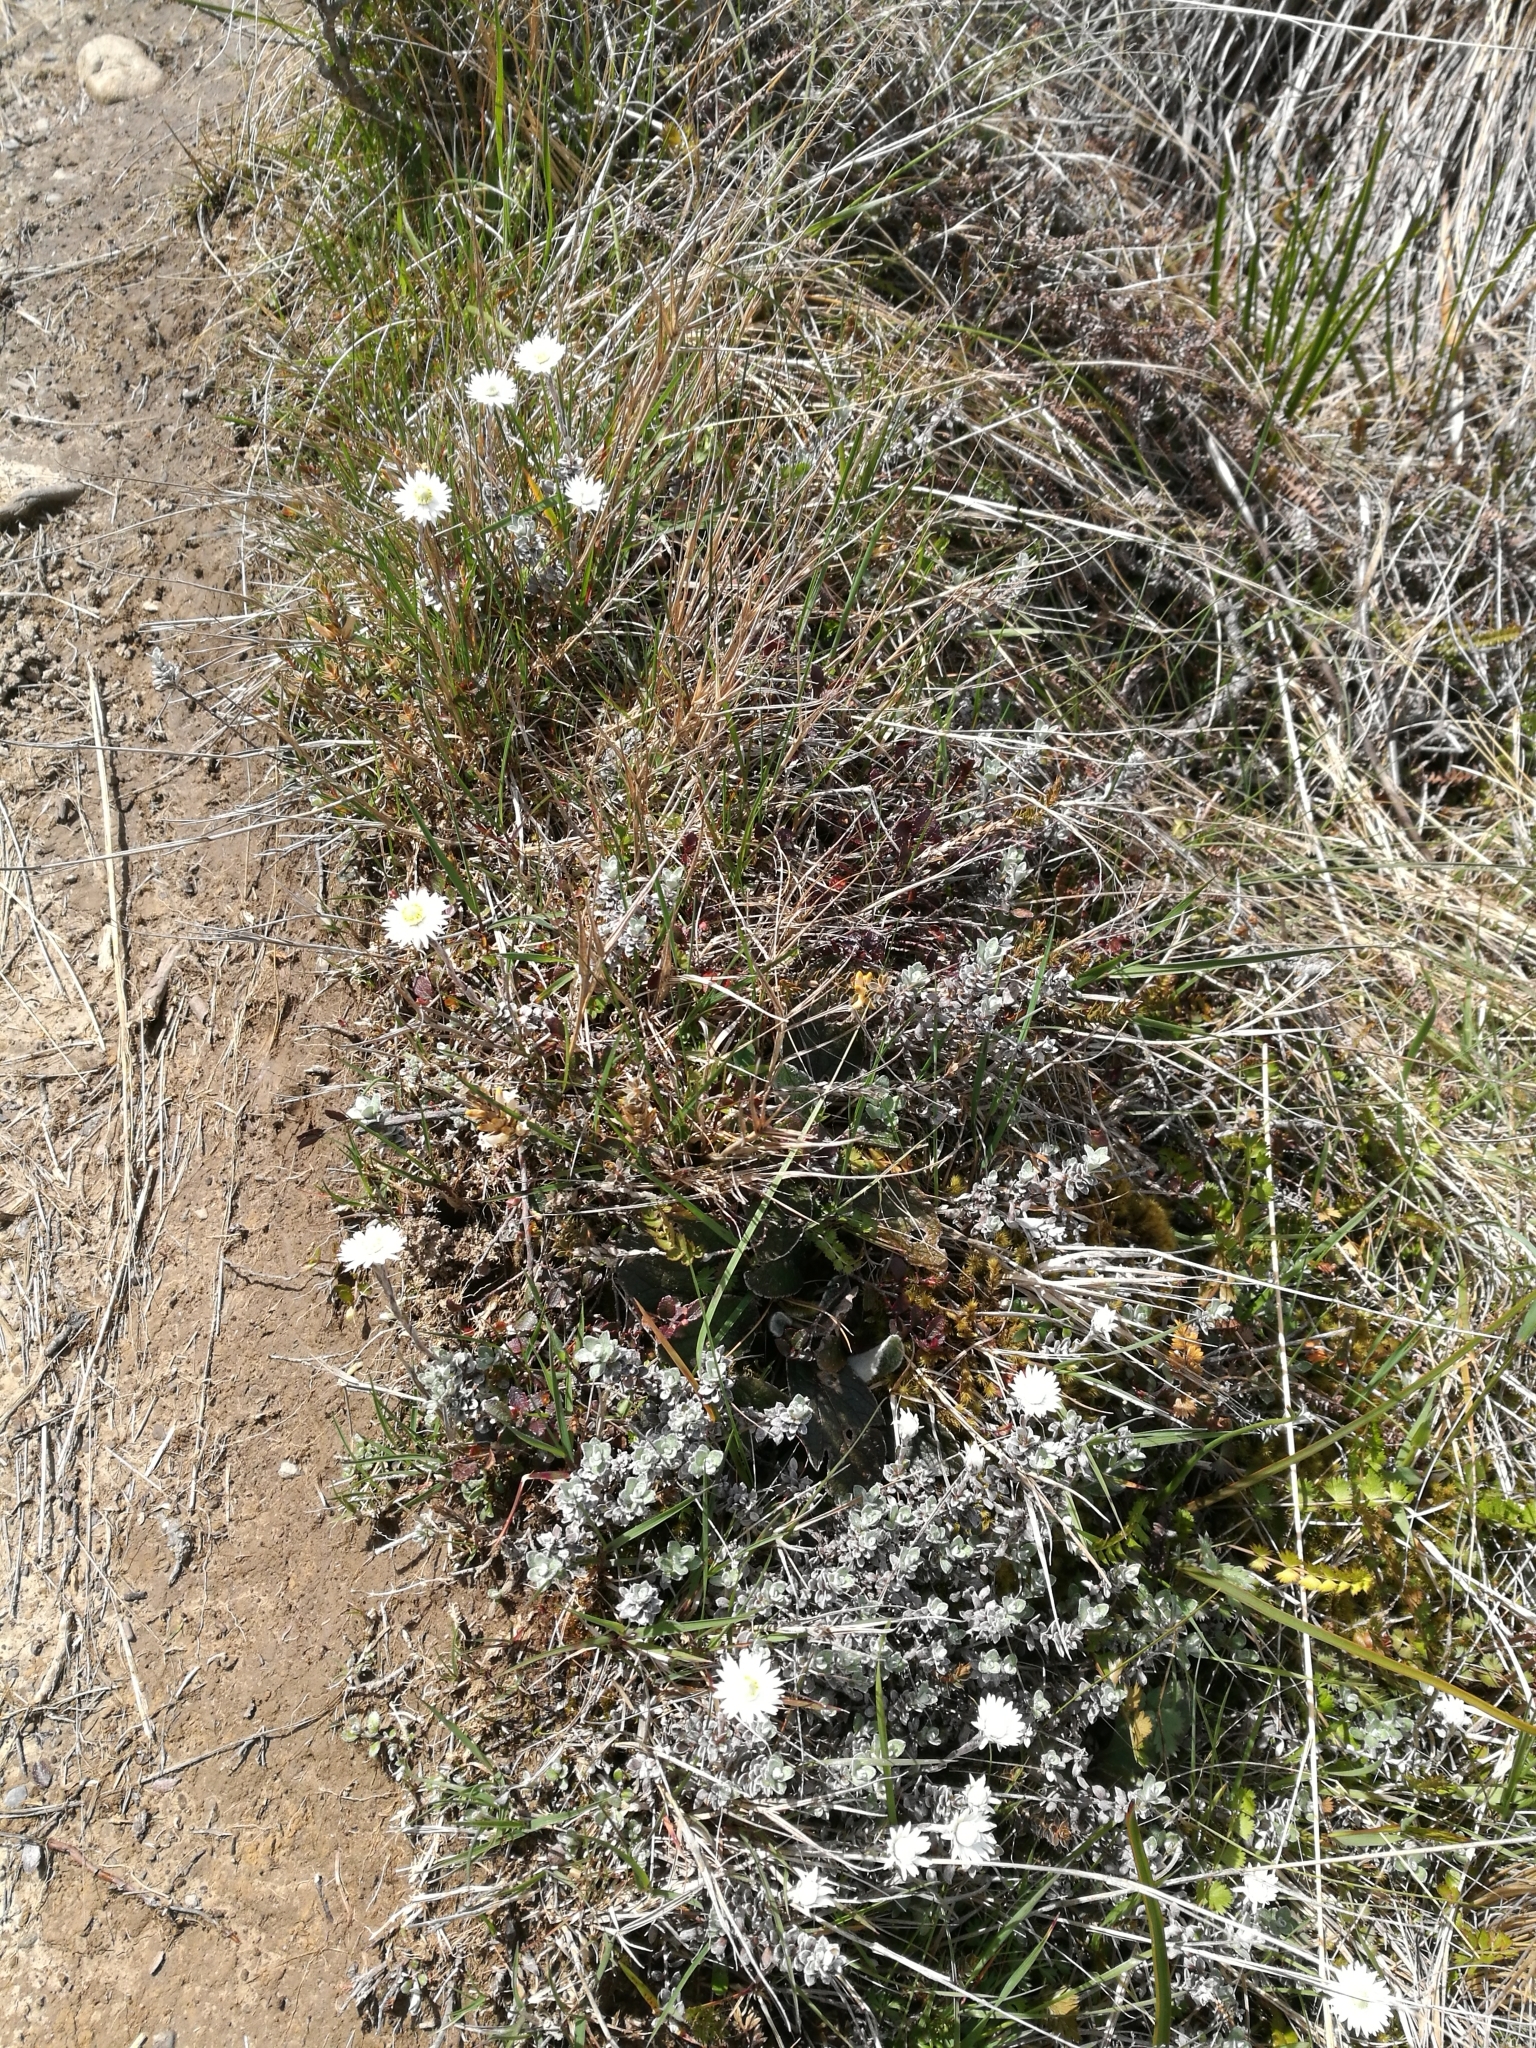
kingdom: Plantae
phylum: Tracheophyta
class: Magnoliopsida
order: Asterales
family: Asteraceae
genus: Anaphalioides
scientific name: Anaphalioides bellidioides
